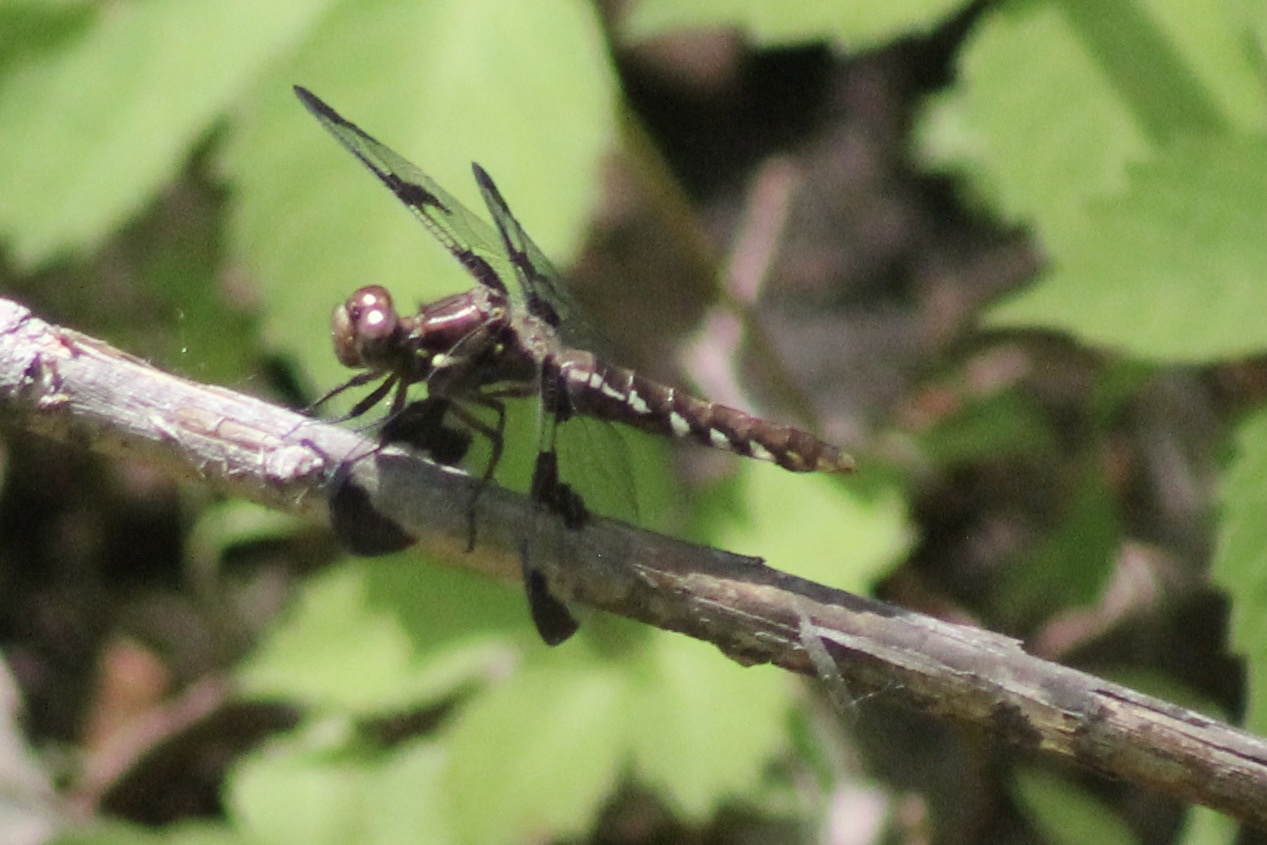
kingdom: Animalia
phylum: Arthropoda
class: Insecta
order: Odonata
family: Libellulidae
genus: Plathemis
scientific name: Plathemis lydia
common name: Common whitetail
